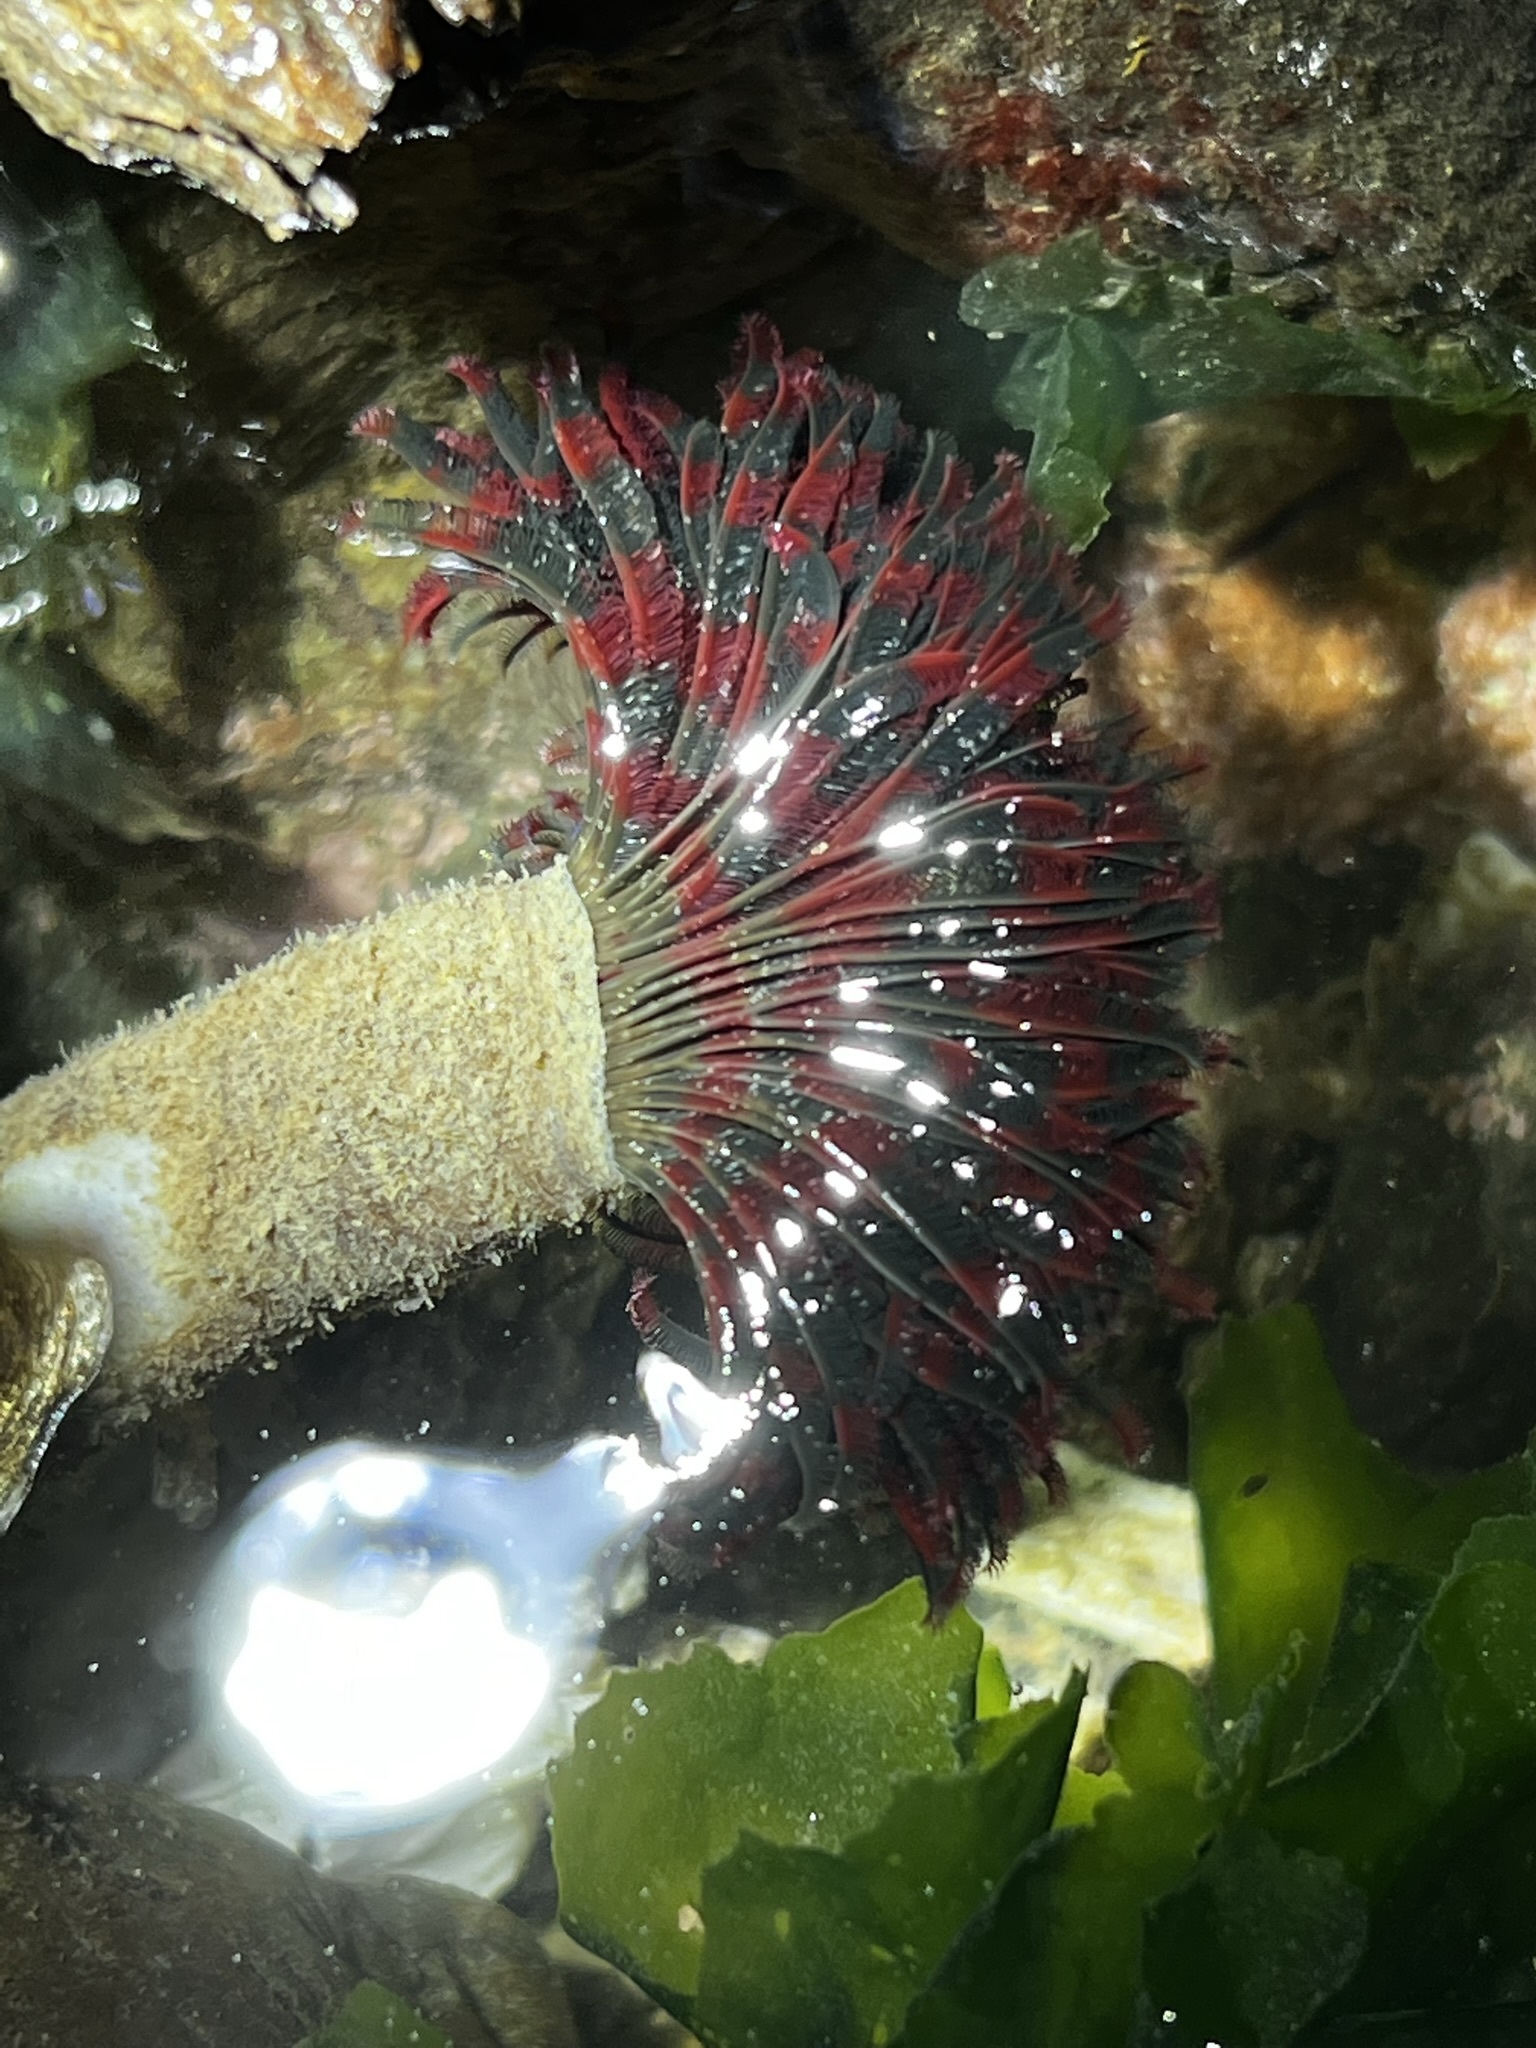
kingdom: Animalia
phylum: Annelida
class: Polychaeta
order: Sabellida
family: Sabellidae
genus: Eudistylia
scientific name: Eudistylia vancouveri
